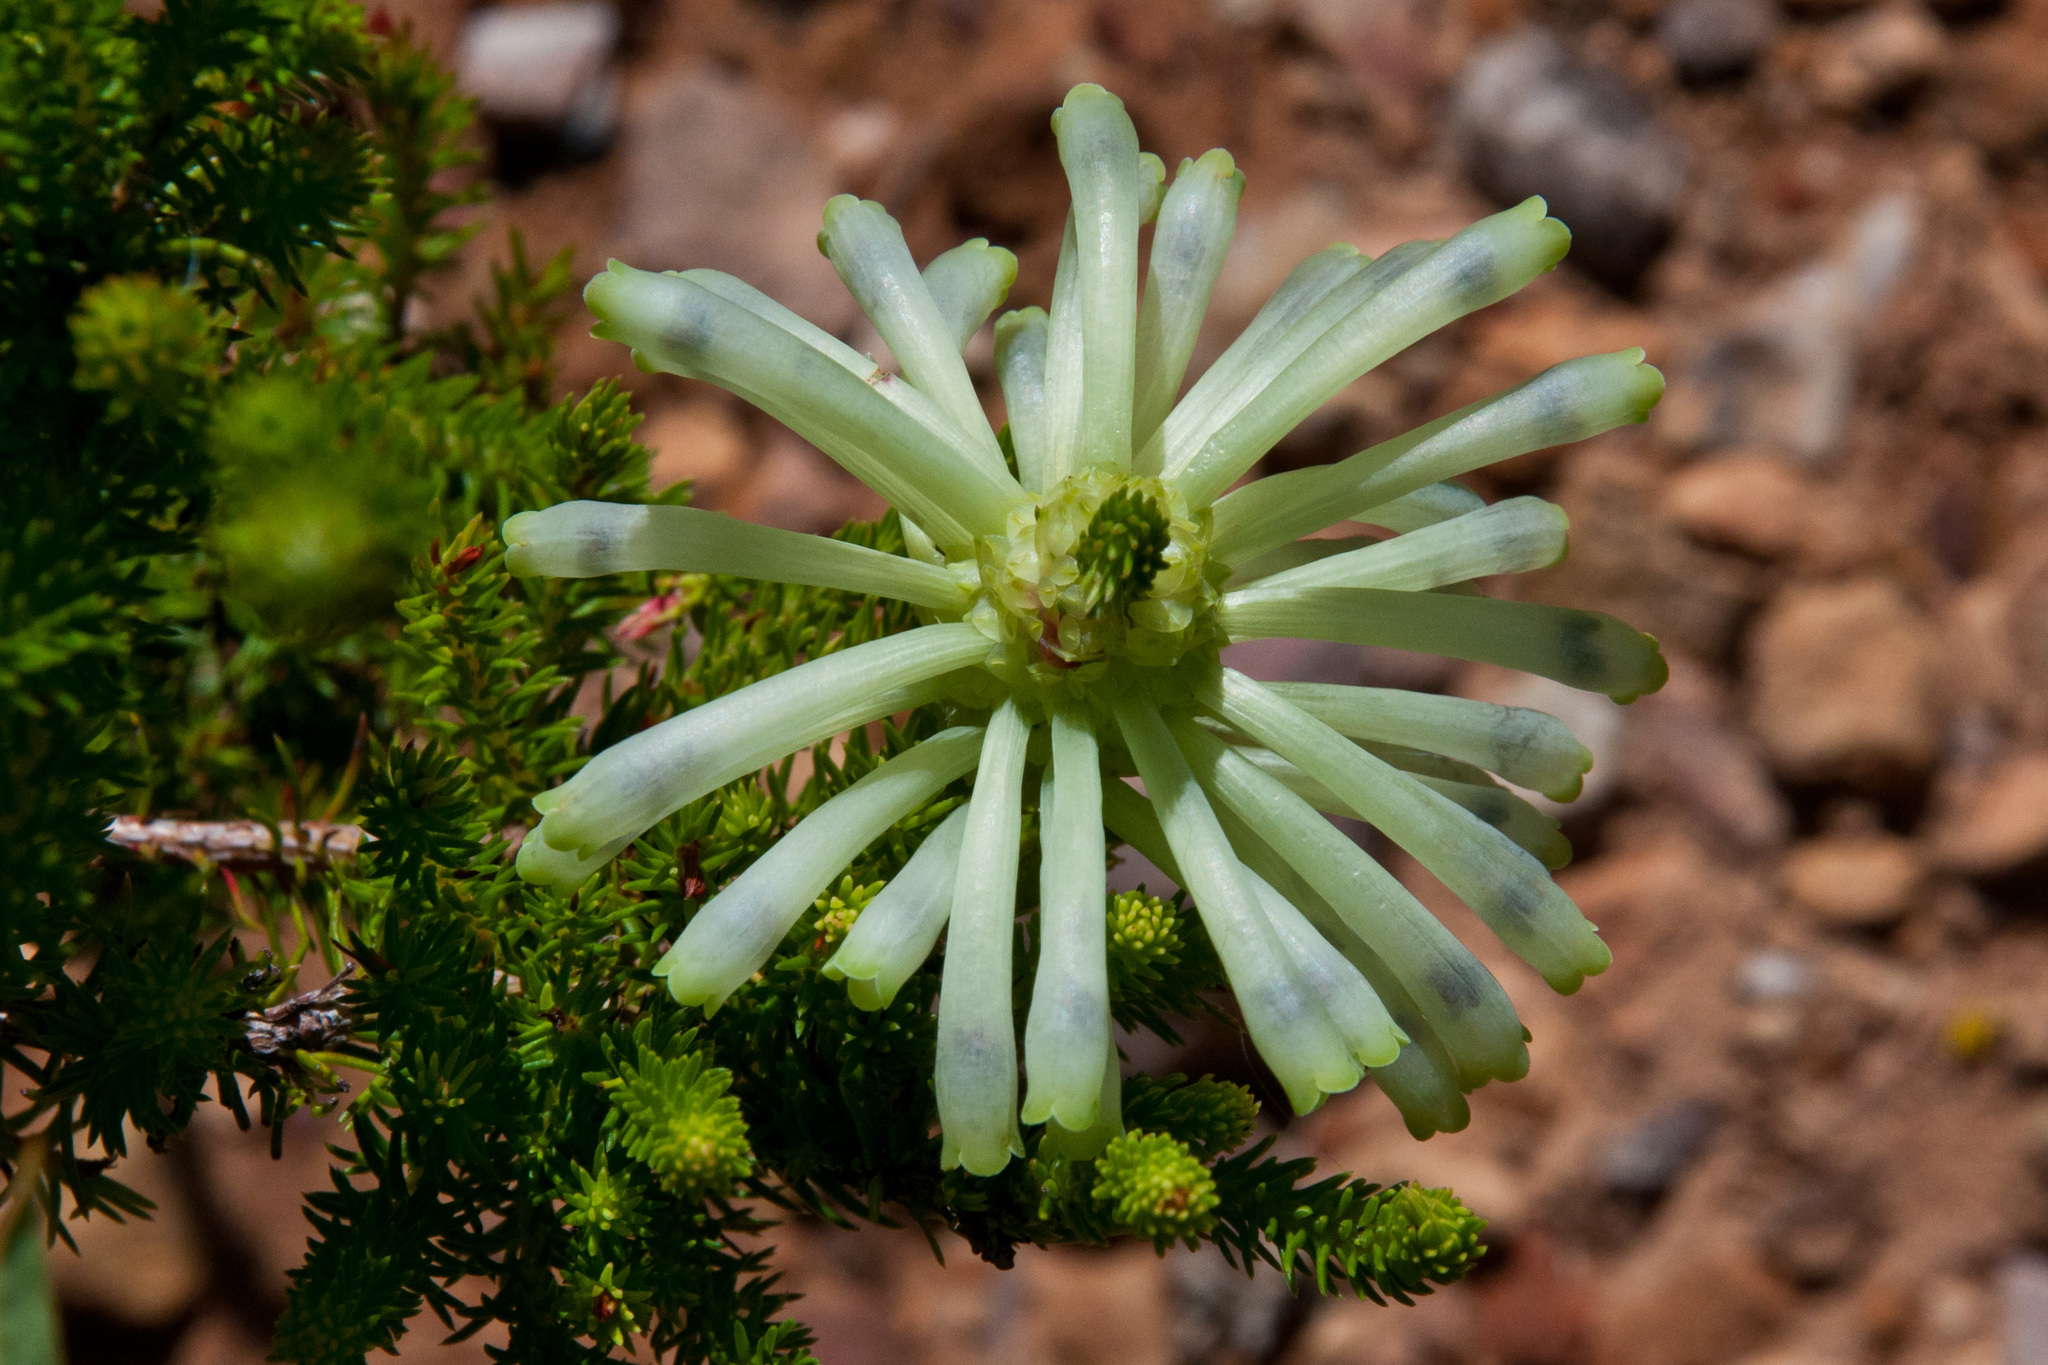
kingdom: Plantae
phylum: Tracheophyta
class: Magnoliopsida
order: Ericales
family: Ericaceae
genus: Erica
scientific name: Erica sessiliflora
